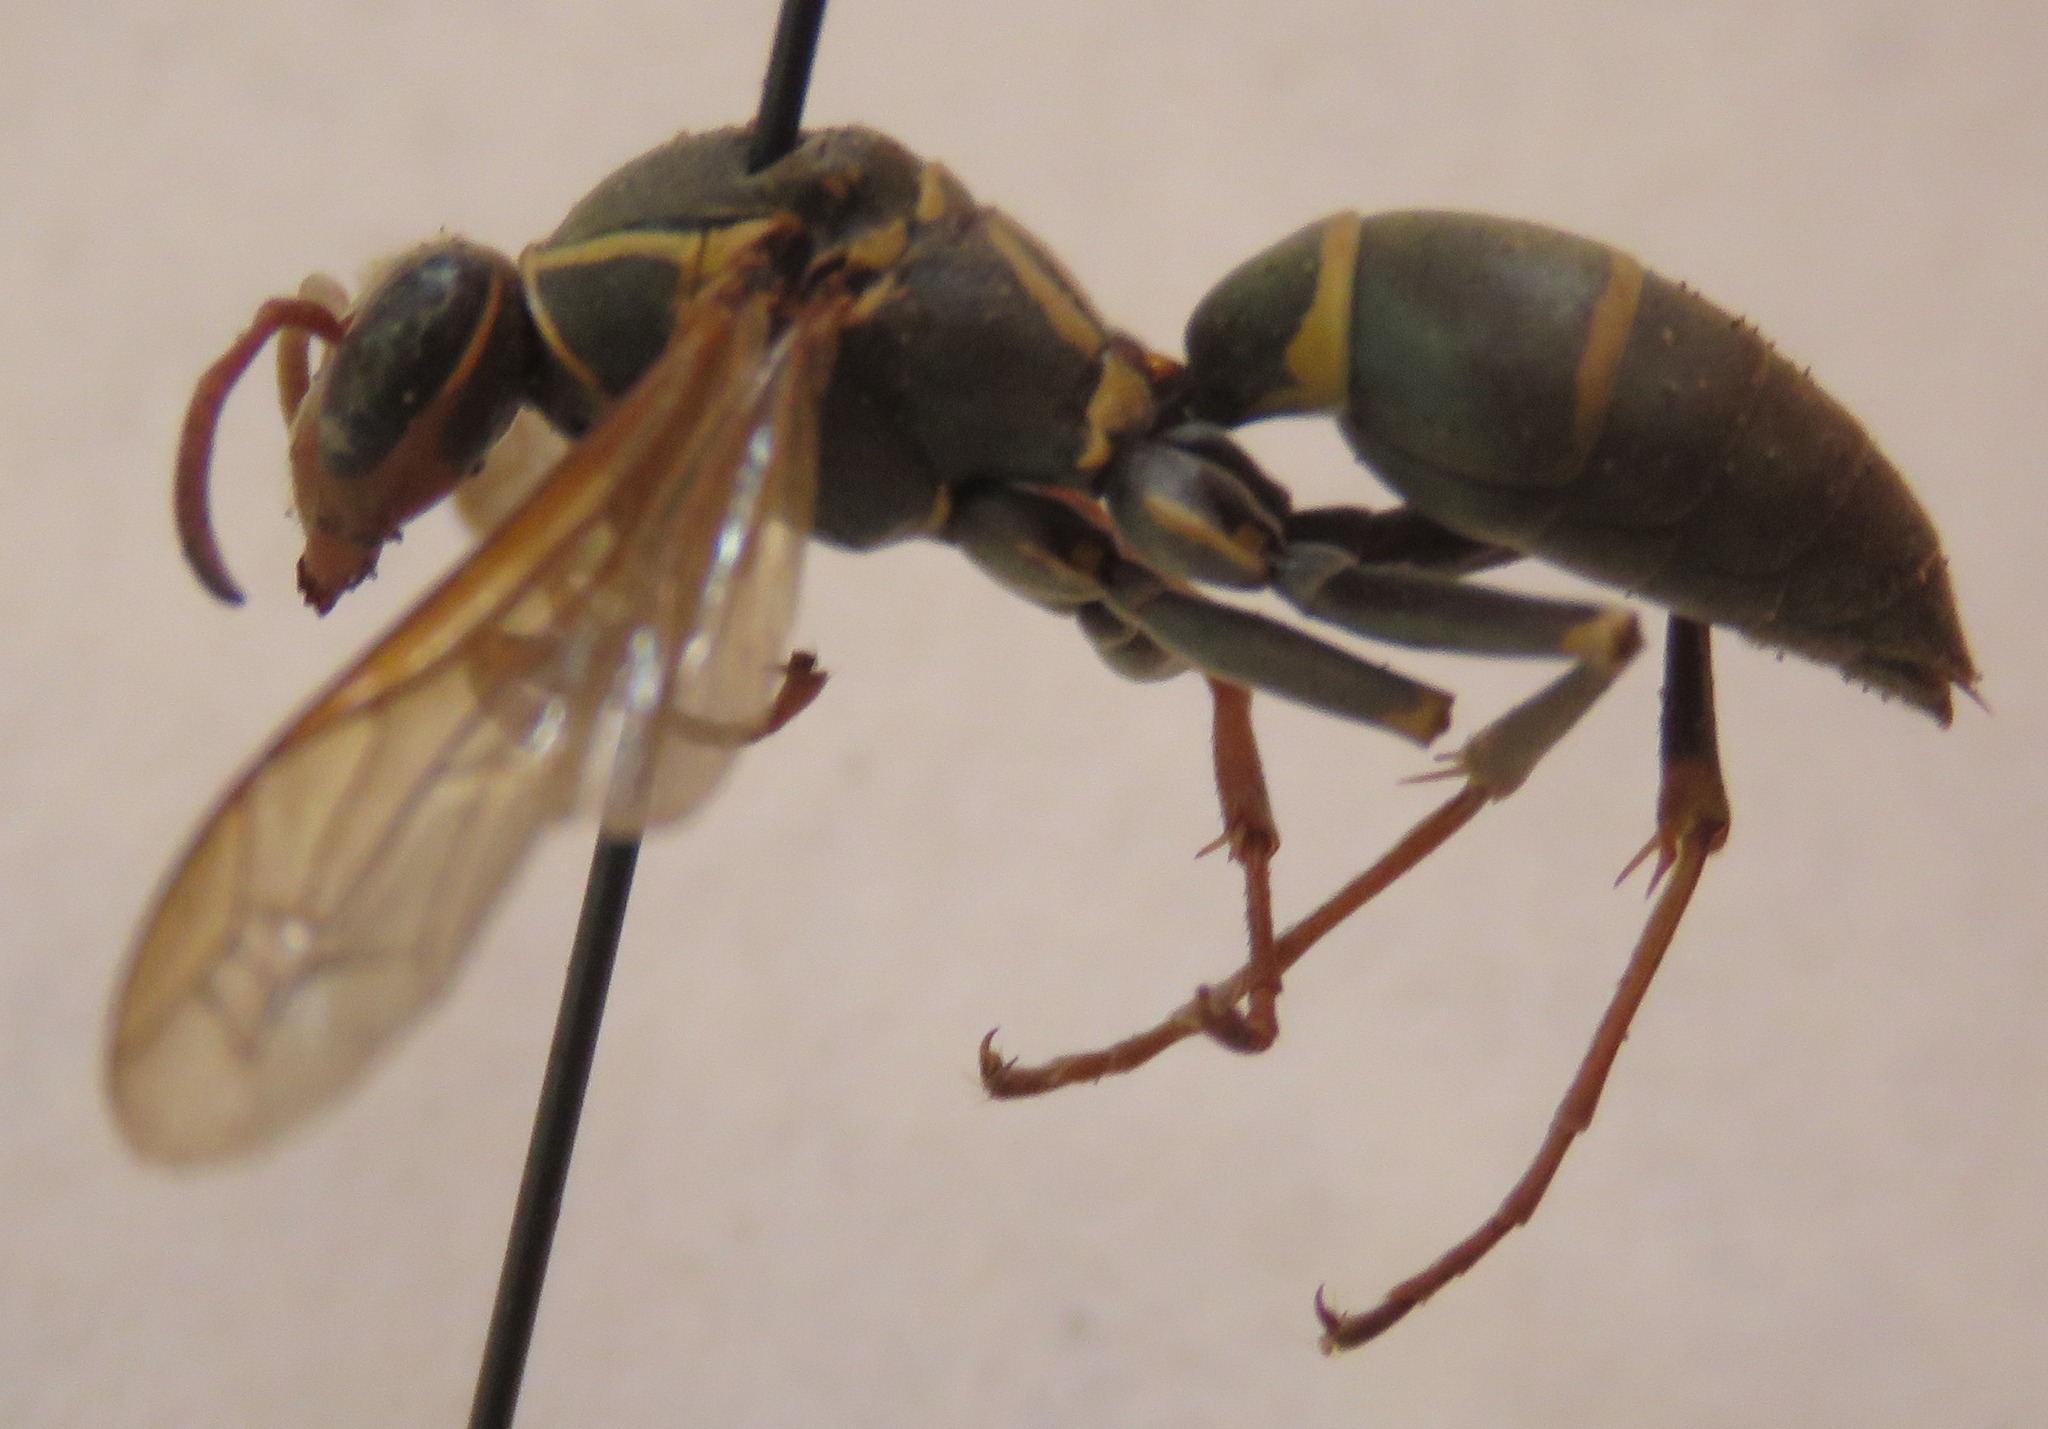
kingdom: Animalia
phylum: Arthropoda
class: Insecta
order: Hymenoptera
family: Eumenidae
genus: Polistes
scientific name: Polistes pacificus
